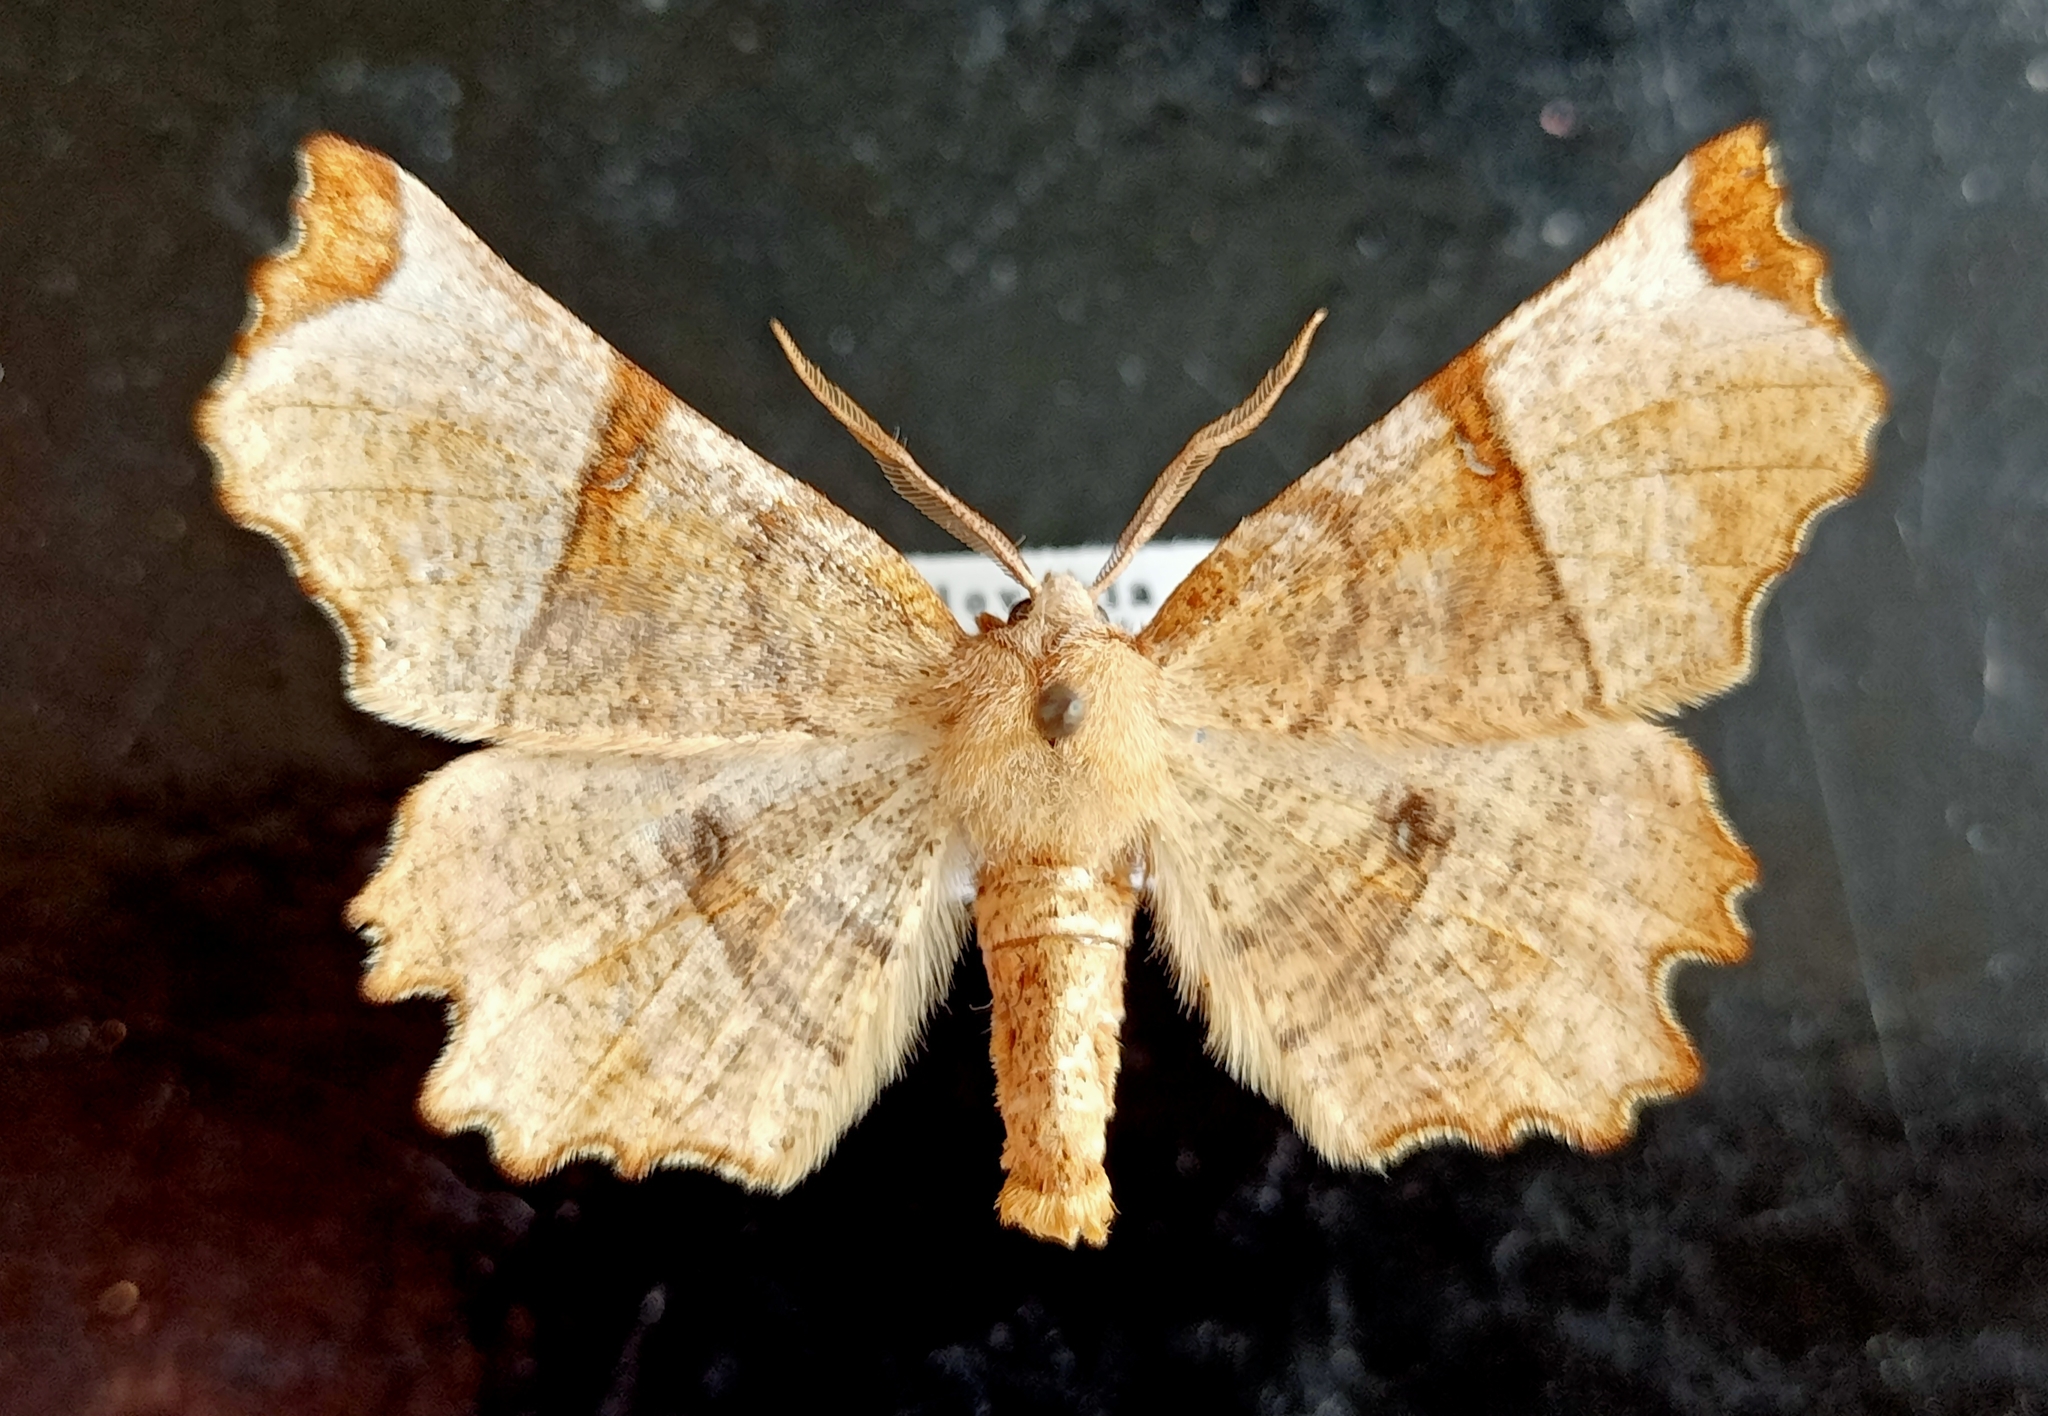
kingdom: Animalia
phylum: Arthropoda
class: Insecta
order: Lepidoptera
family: Geometridae
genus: Selenia
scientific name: Selenia lunularia
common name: Lunar thorn
